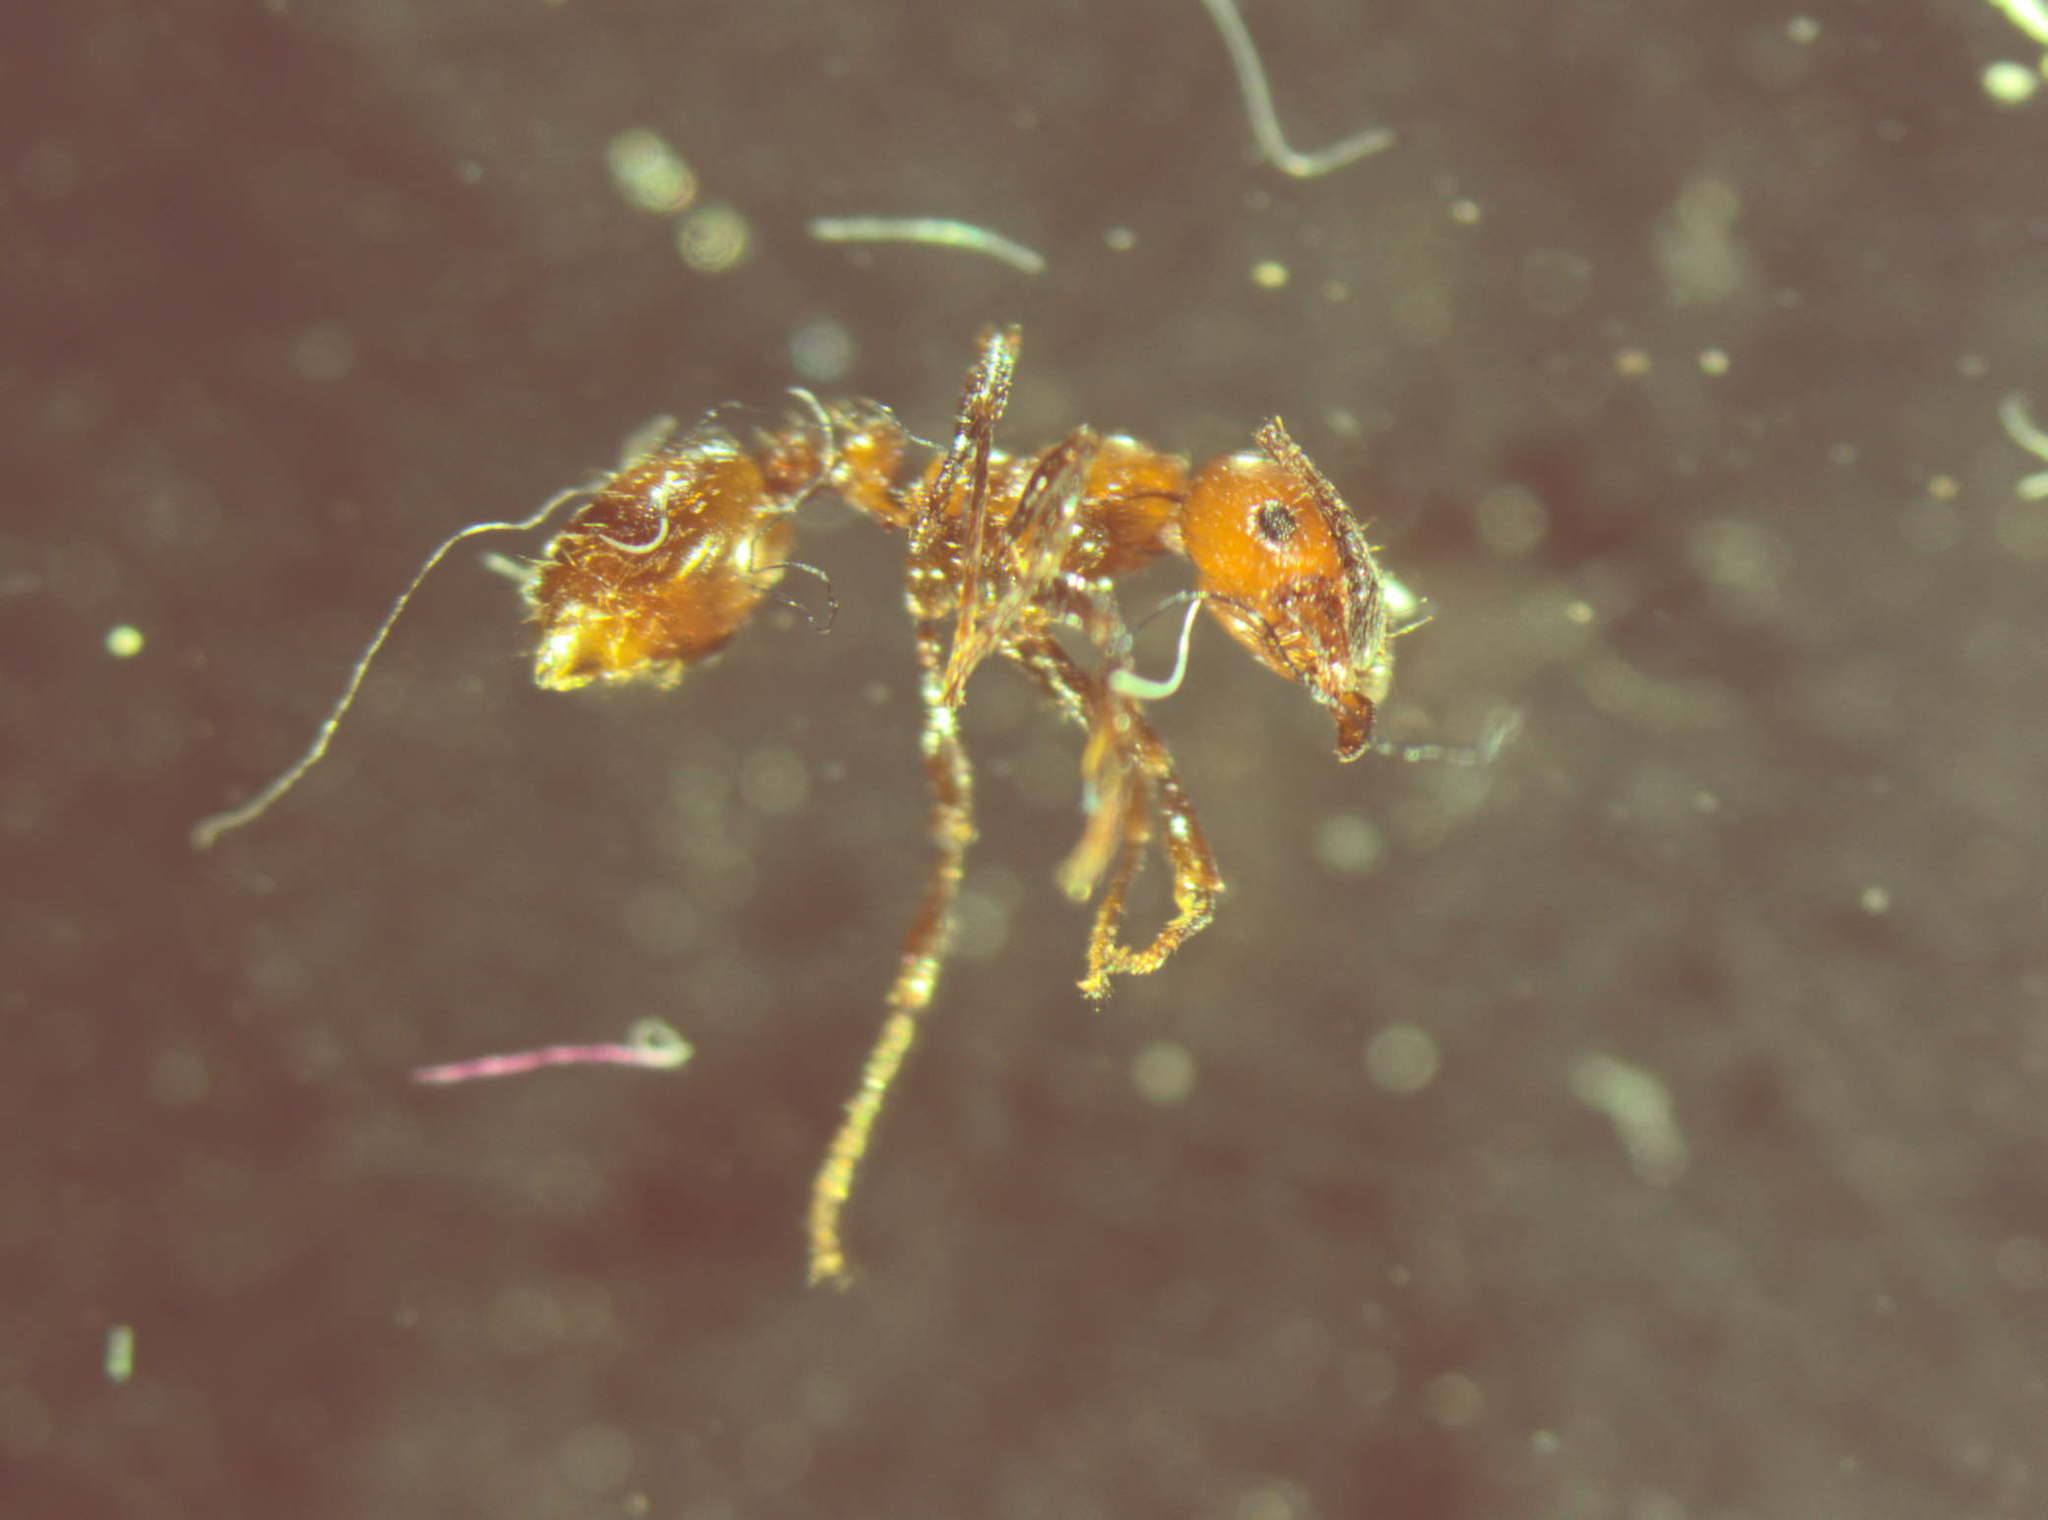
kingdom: Animalia
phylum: Arthropoda
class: Insecta
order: Hymenoptera
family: Formicidae
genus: Monomorium
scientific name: Monomorium antarcticum
